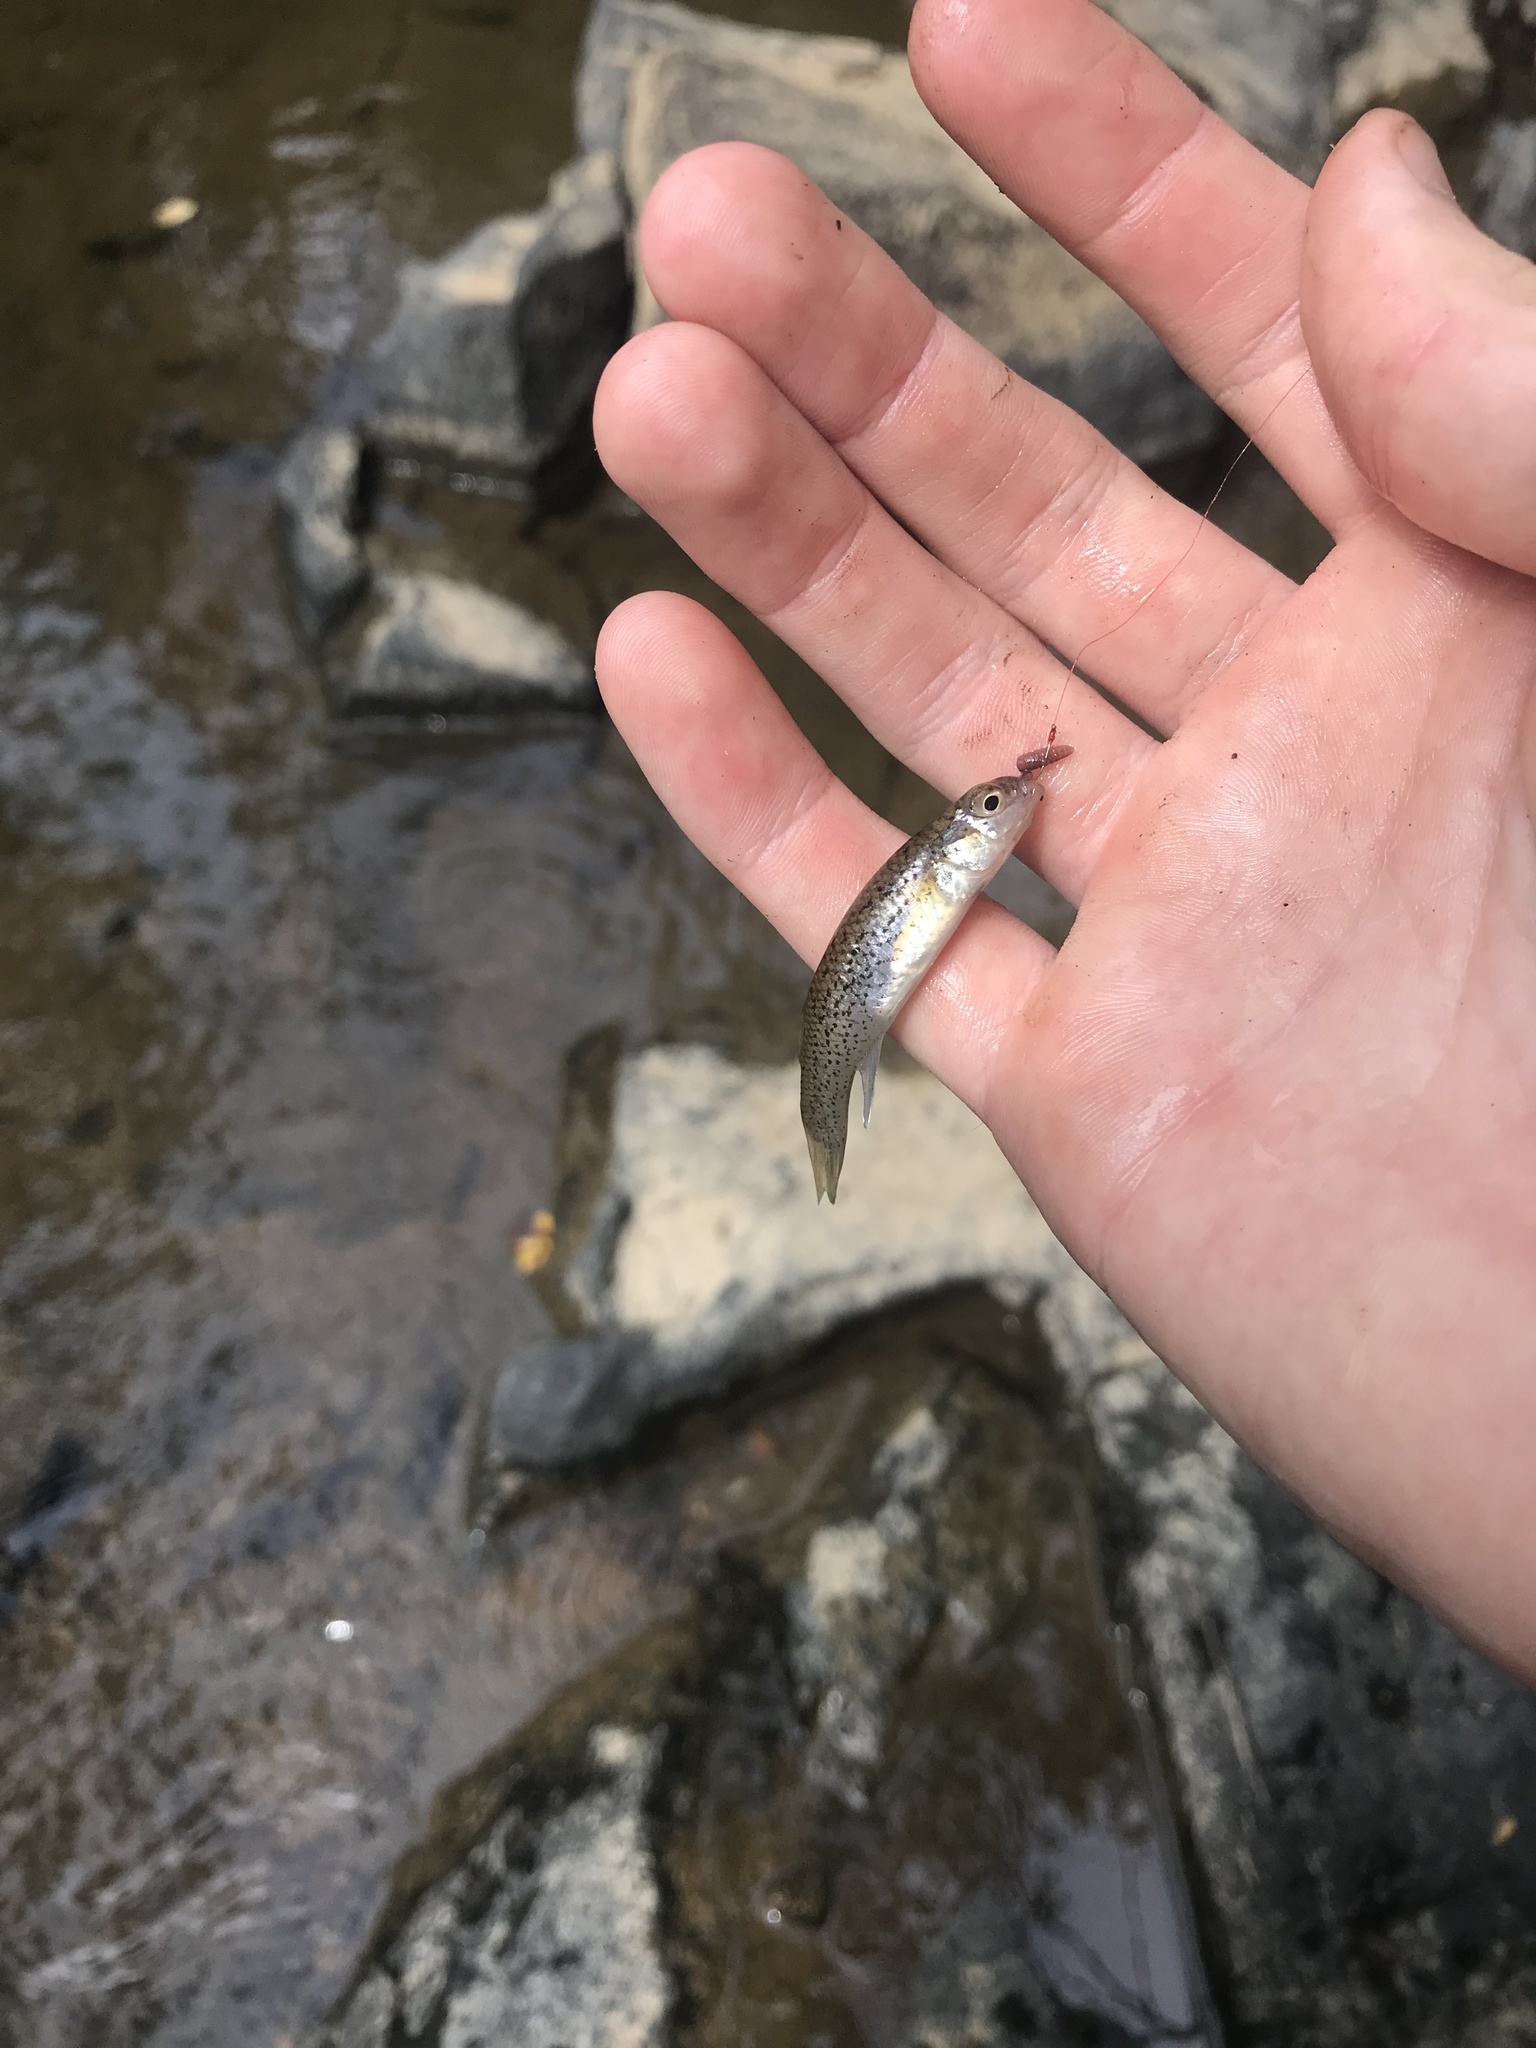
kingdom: Animalia
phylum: Chordata
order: Cyprinodontiformes
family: Fundulidae
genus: Fundulus
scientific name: Fundulus rathbuni
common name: Speckled killifish
